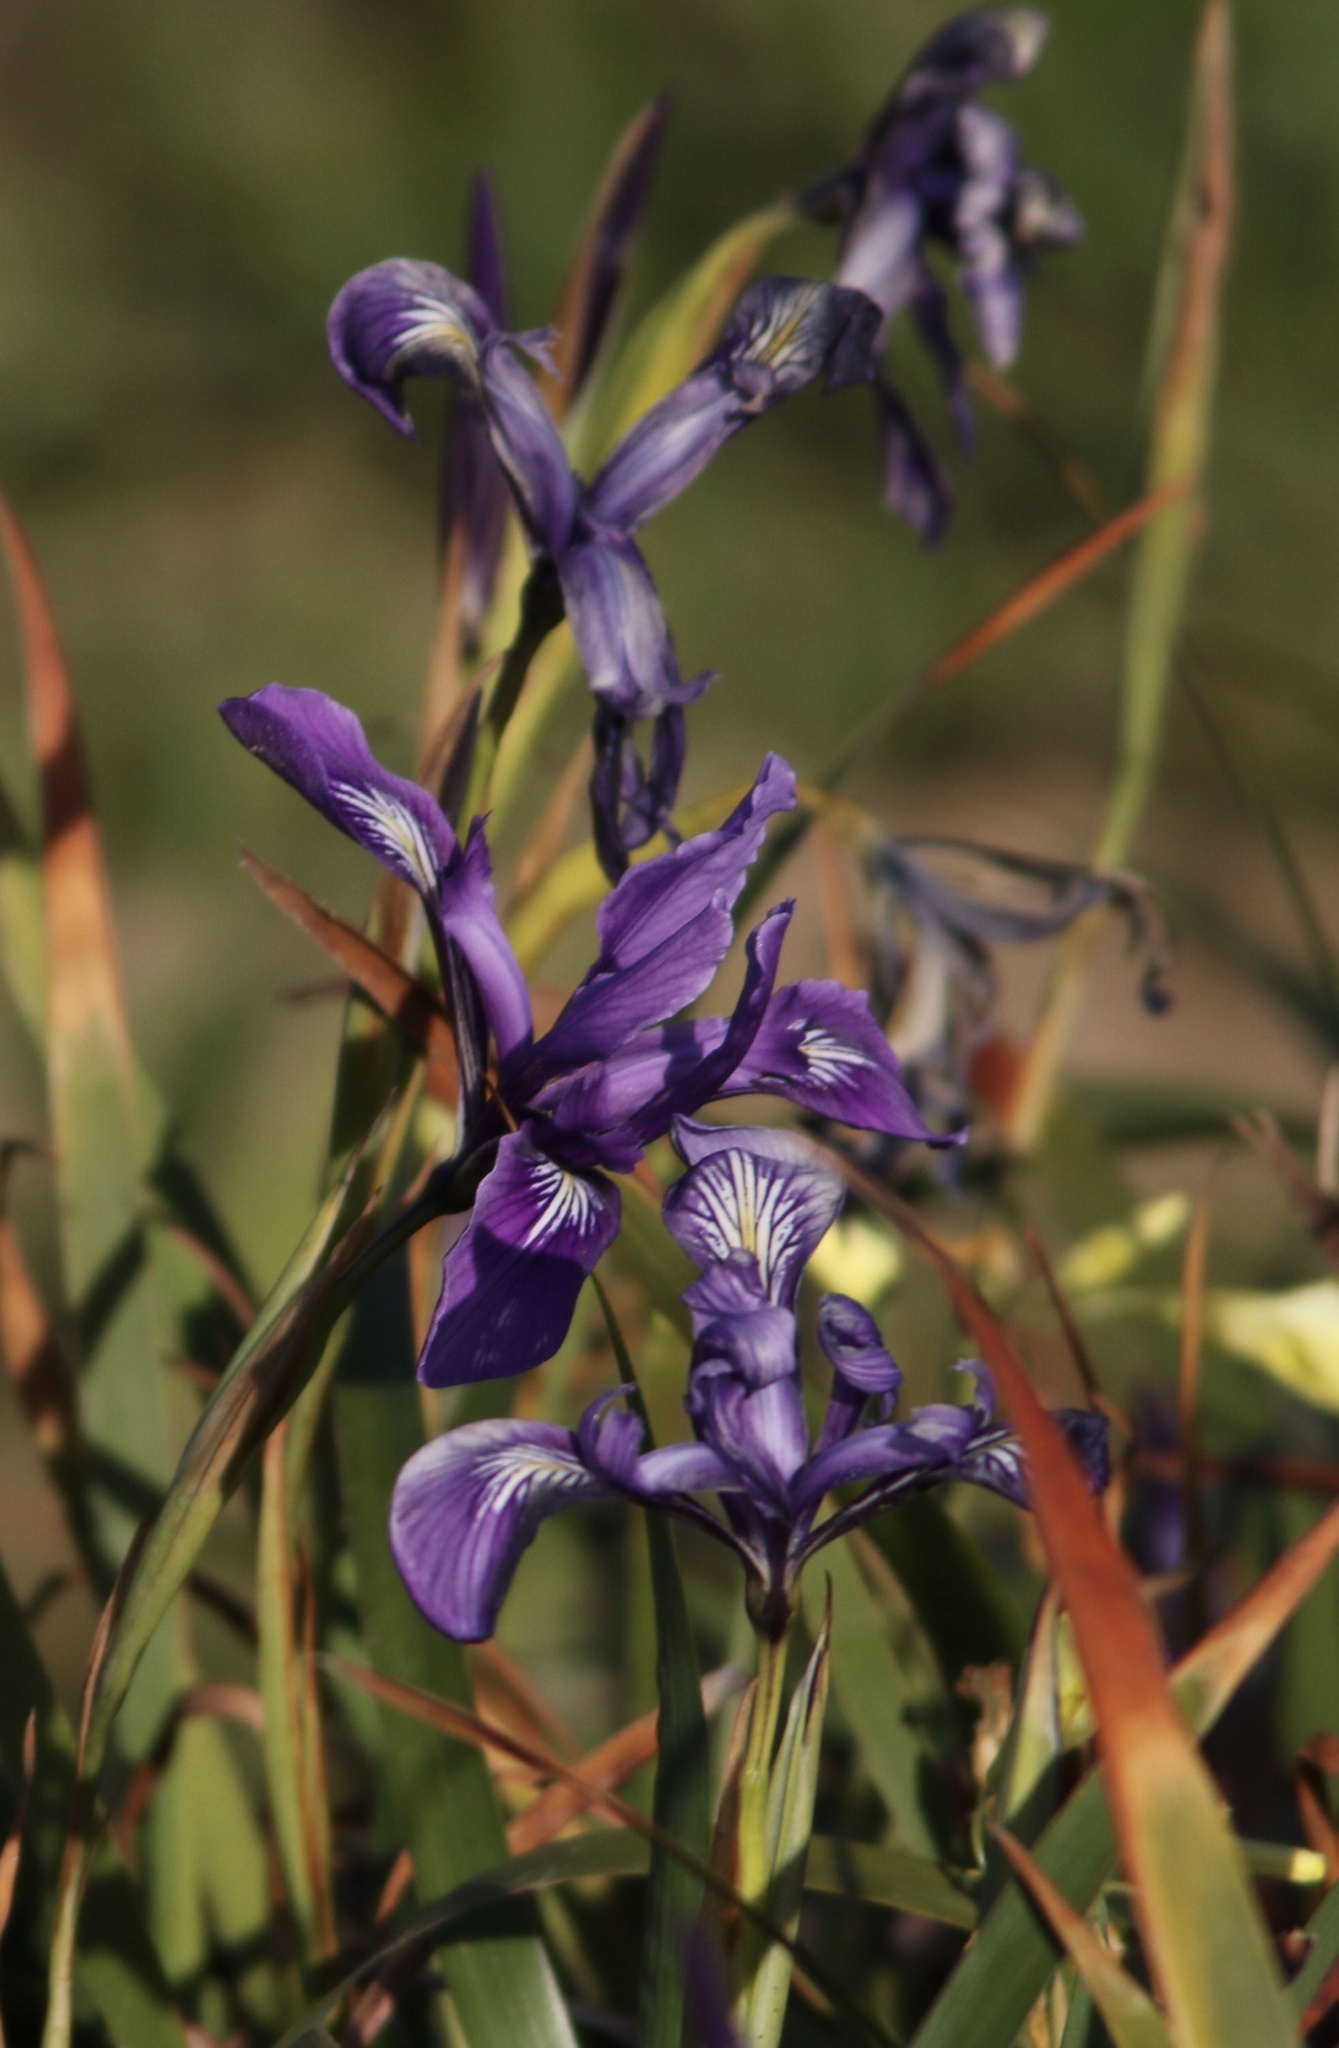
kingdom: Plantae
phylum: Tracheophyta
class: Liliopsida
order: Asparagales
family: Iridaceae
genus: Iris
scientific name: Iris douglasiana
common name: Marin iris
